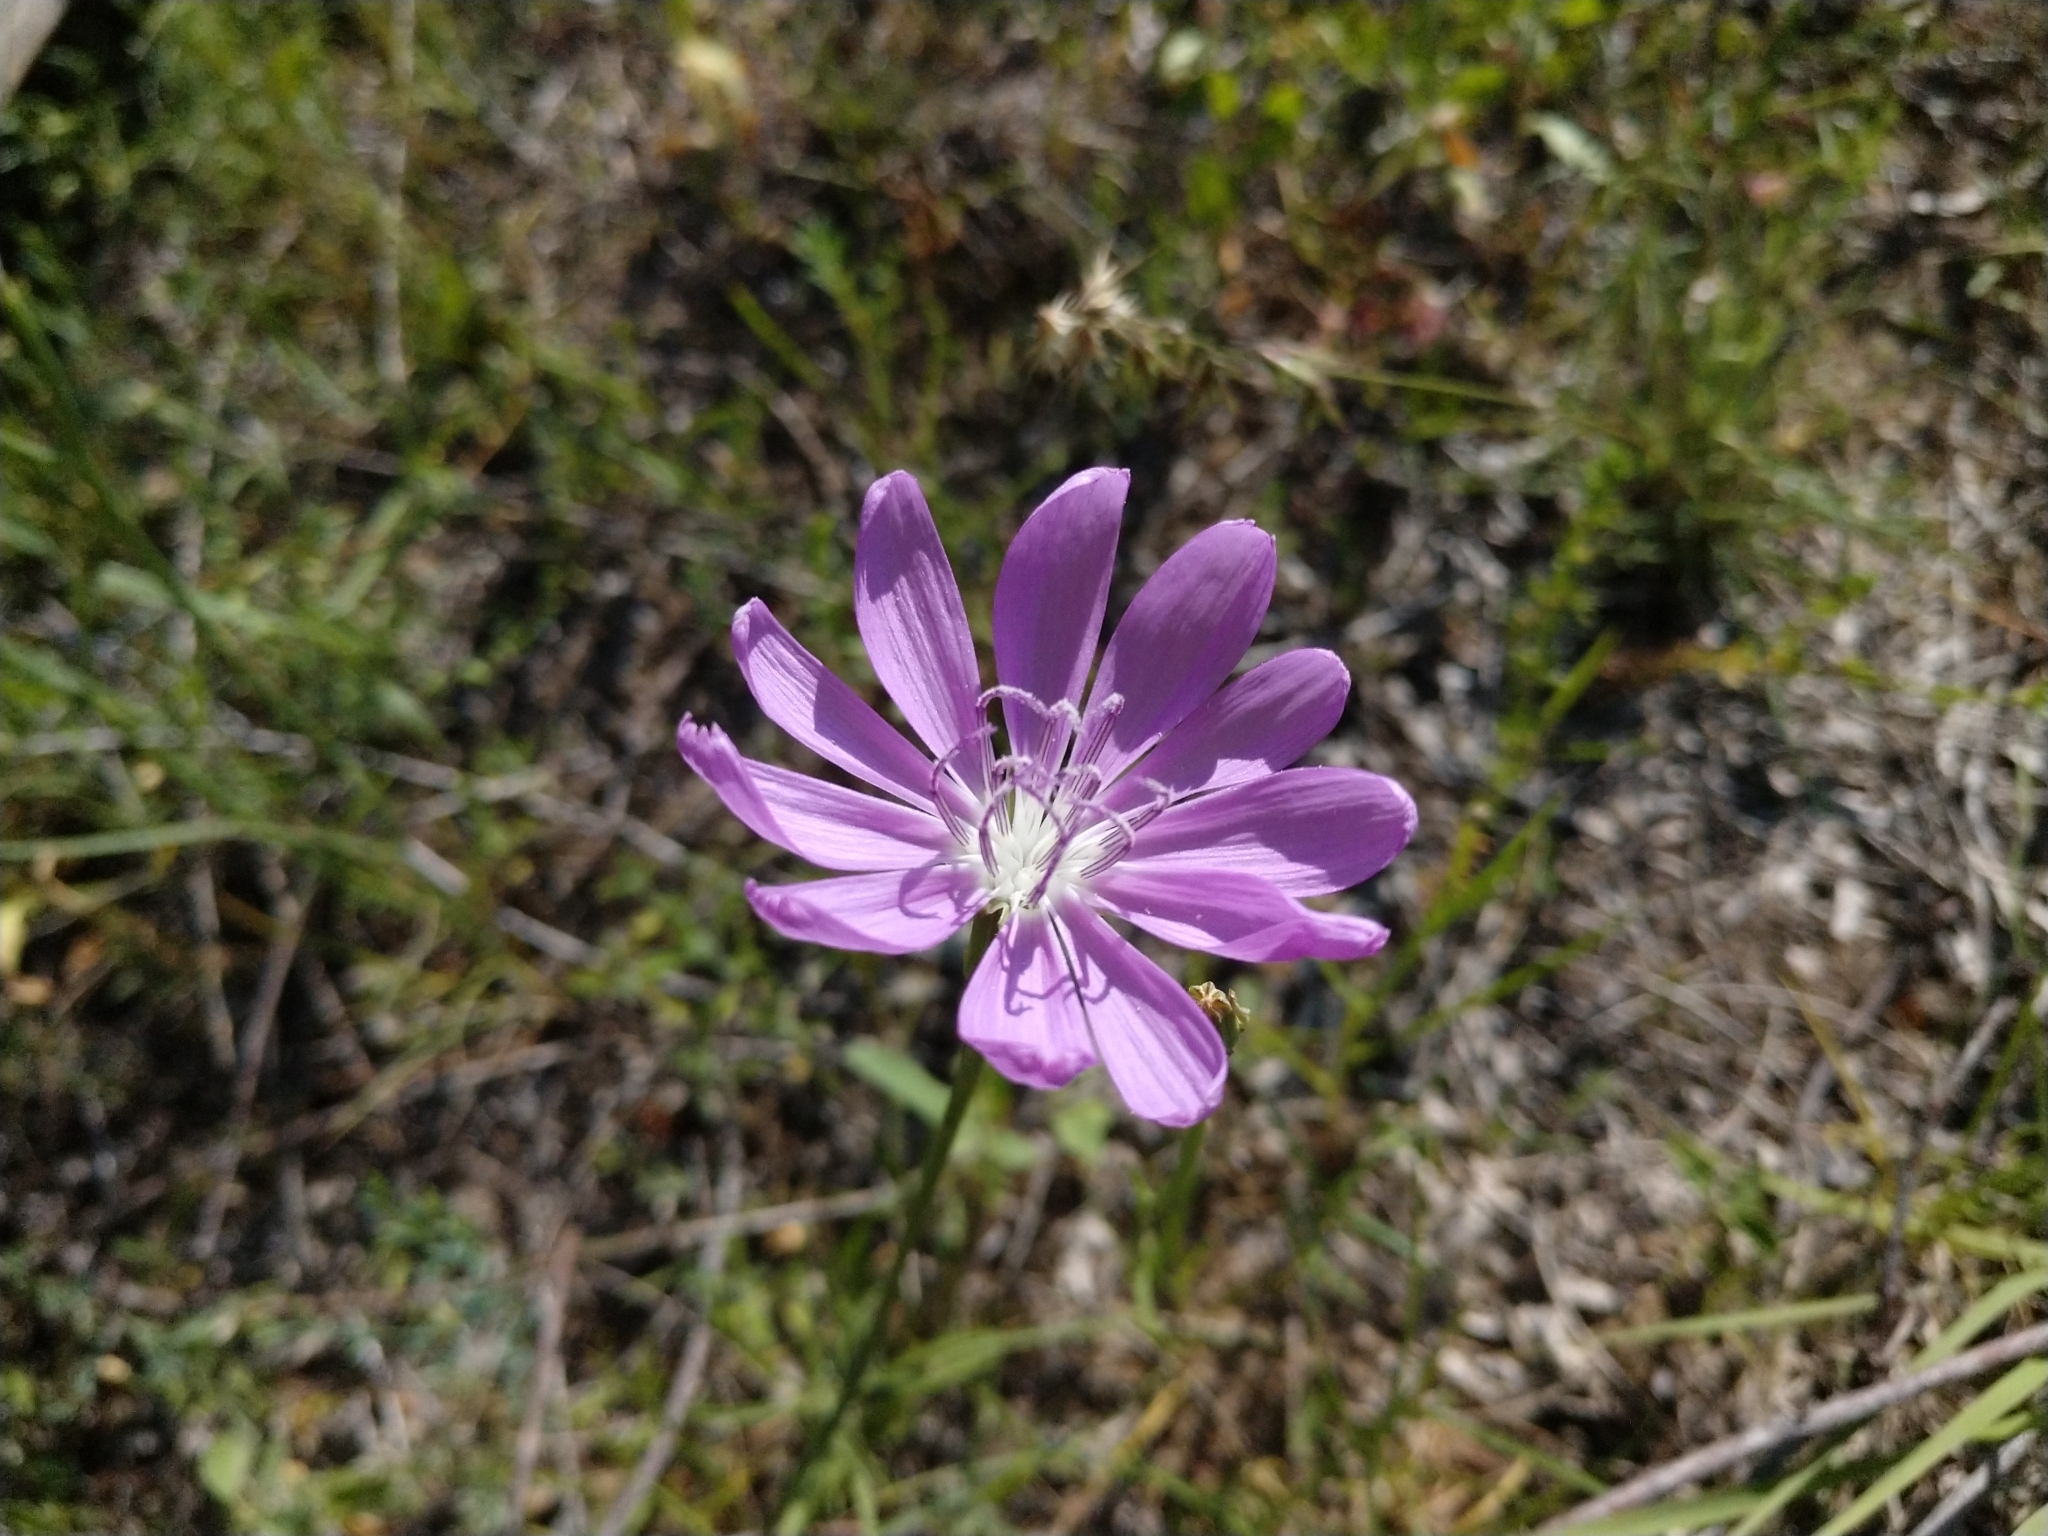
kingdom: Plantae
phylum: Tracheophyta
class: Magnoliopsida
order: Asterales
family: Asteraceae
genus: Lygodesmia
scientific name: Lygodesmia texana
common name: Texas skeleton-plant
